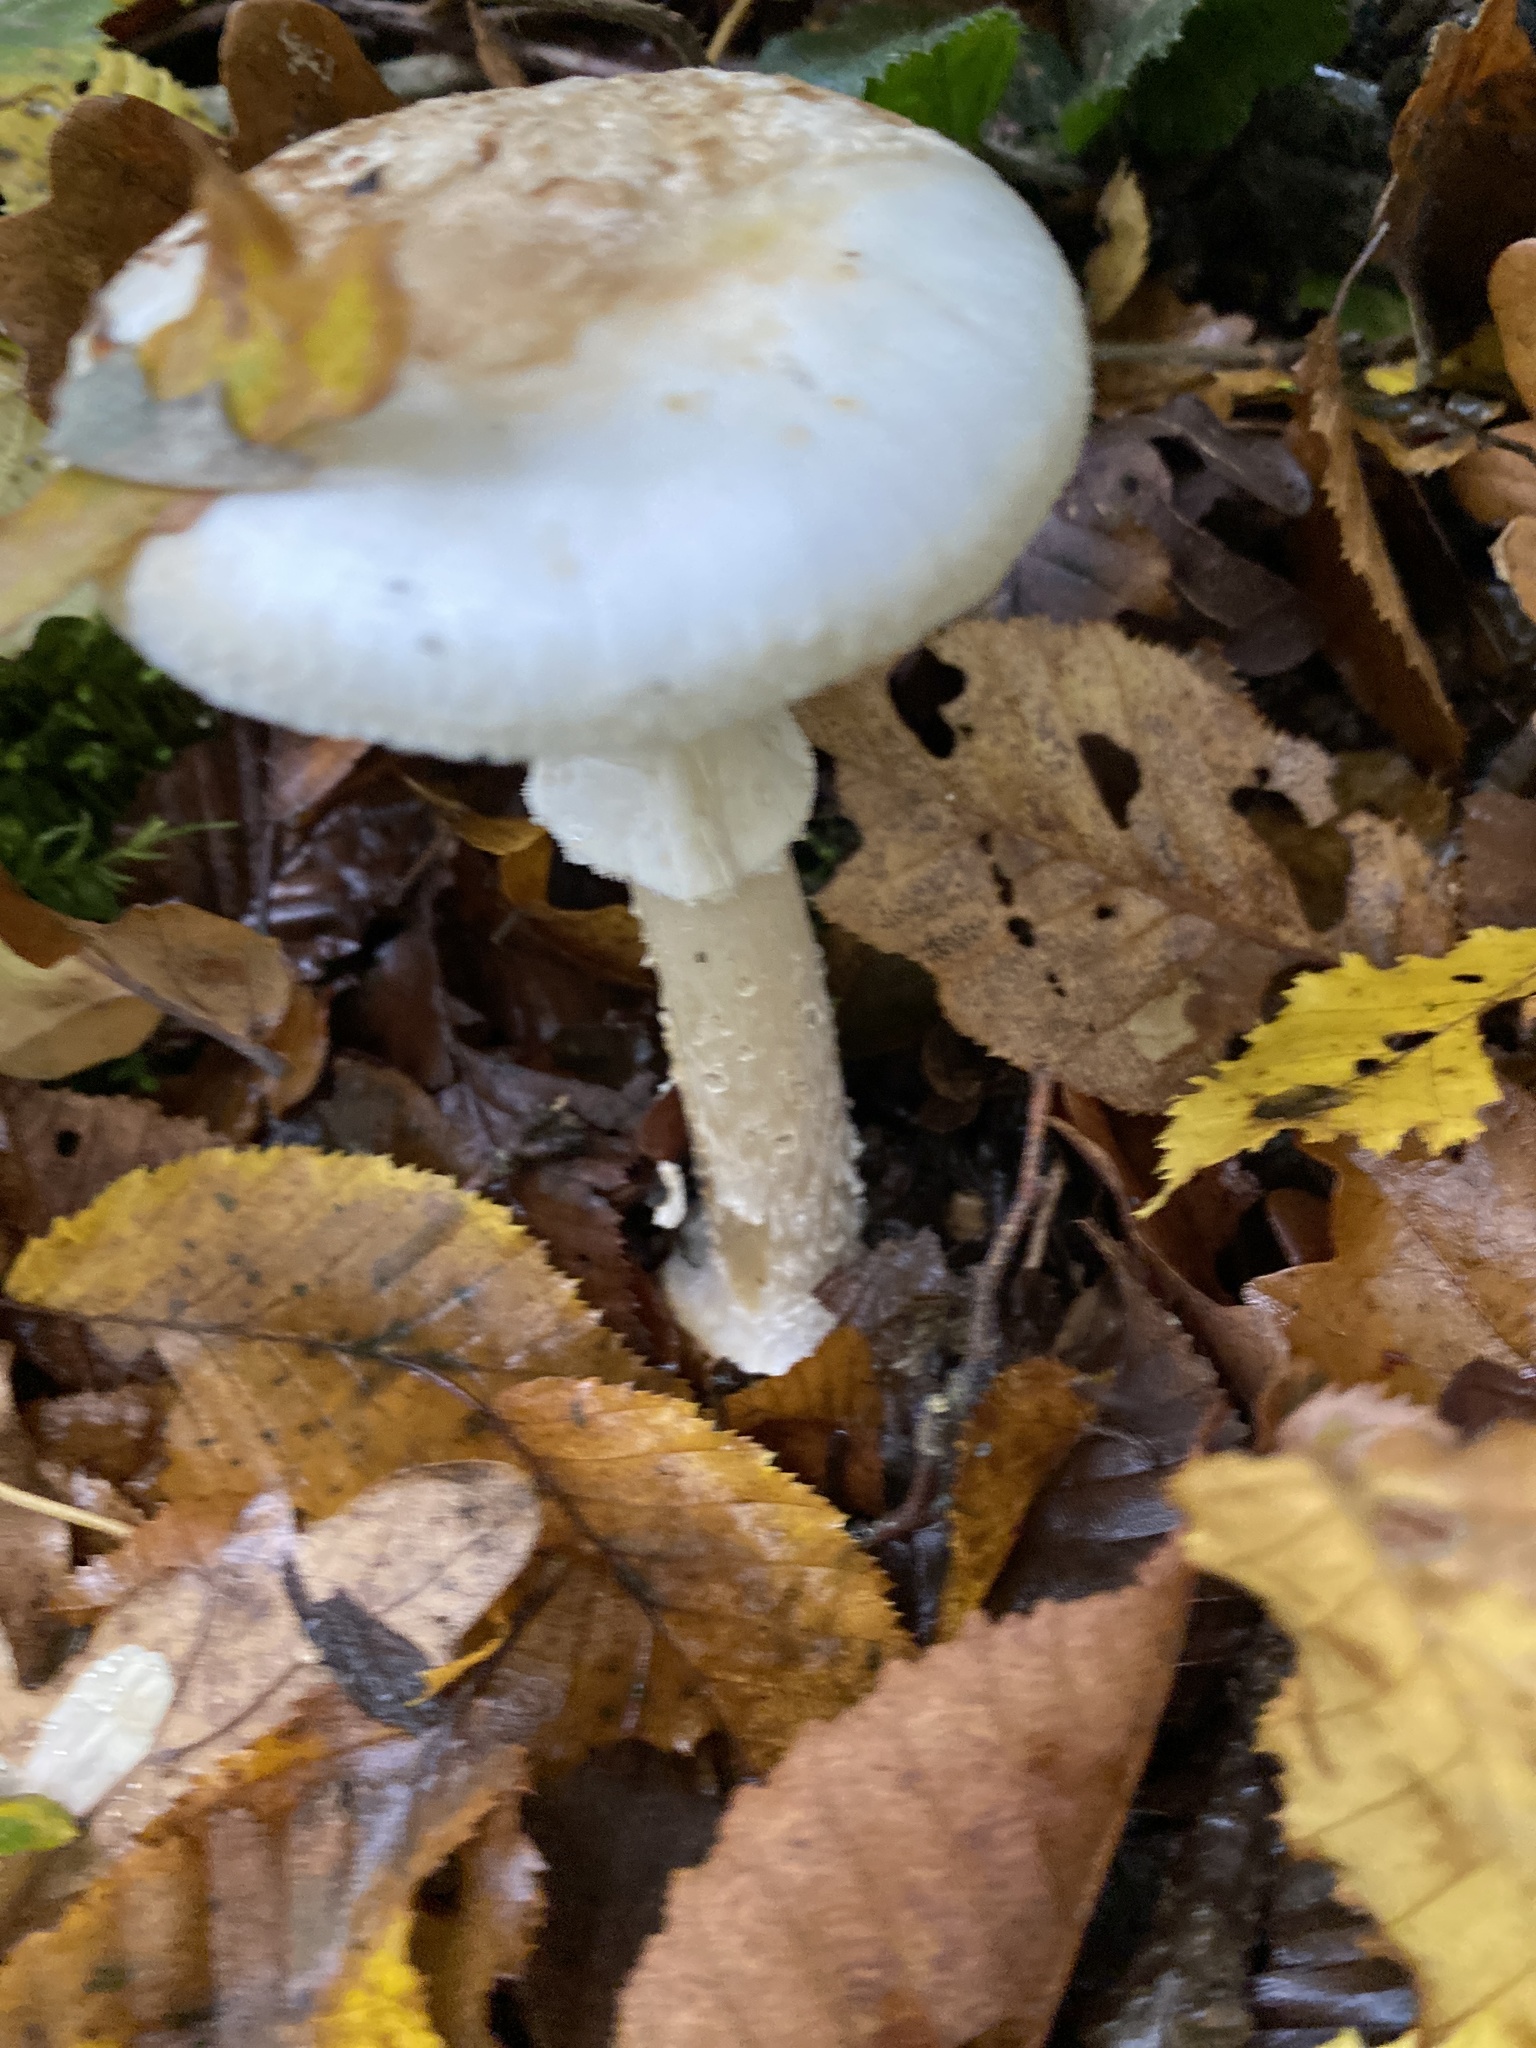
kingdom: Fungi
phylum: Basidiomycota
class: Agaricomycetes
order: Agaricales
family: Amanitaceae
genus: Amanita
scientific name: Amanita citrina
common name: False death-cap
